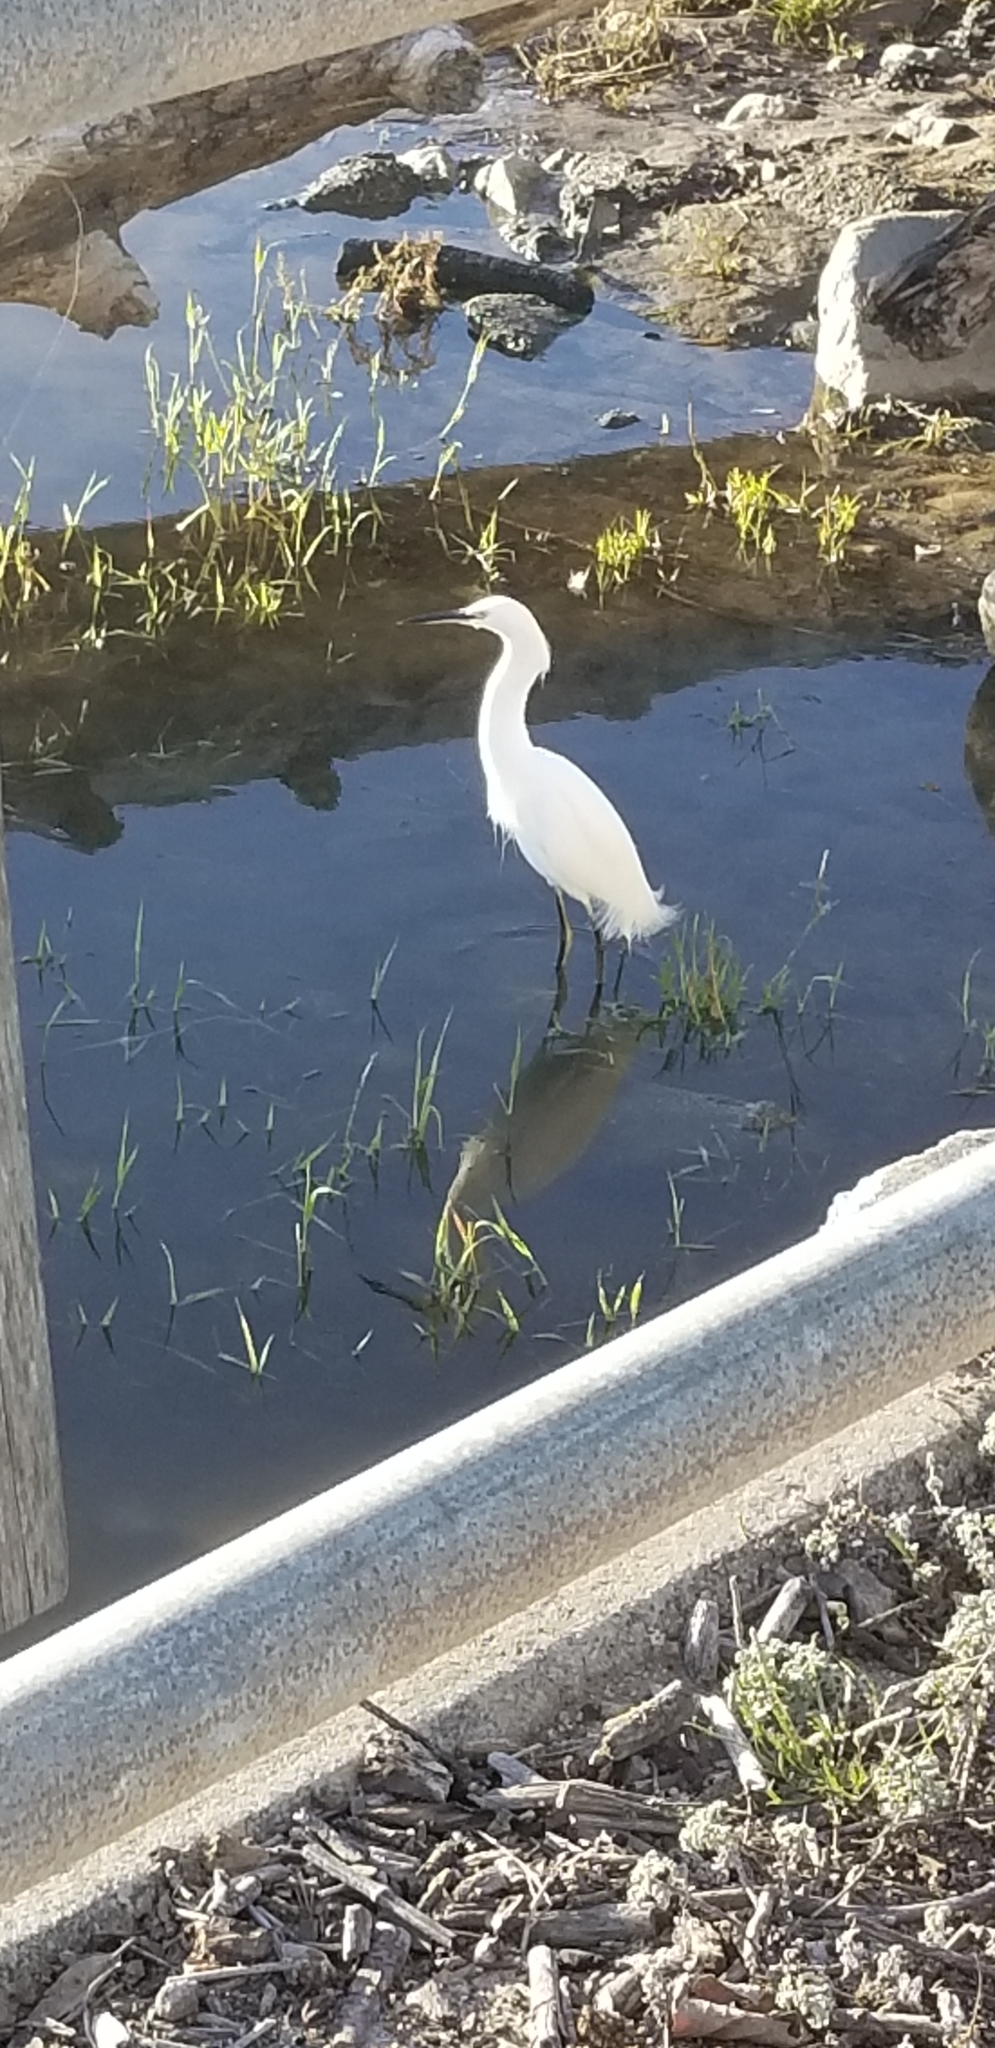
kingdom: Animalia
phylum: Chordata
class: Aves
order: Pelecaniformes
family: Ardeidae
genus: Egretta
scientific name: Egretta thula
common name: Snowy egret
